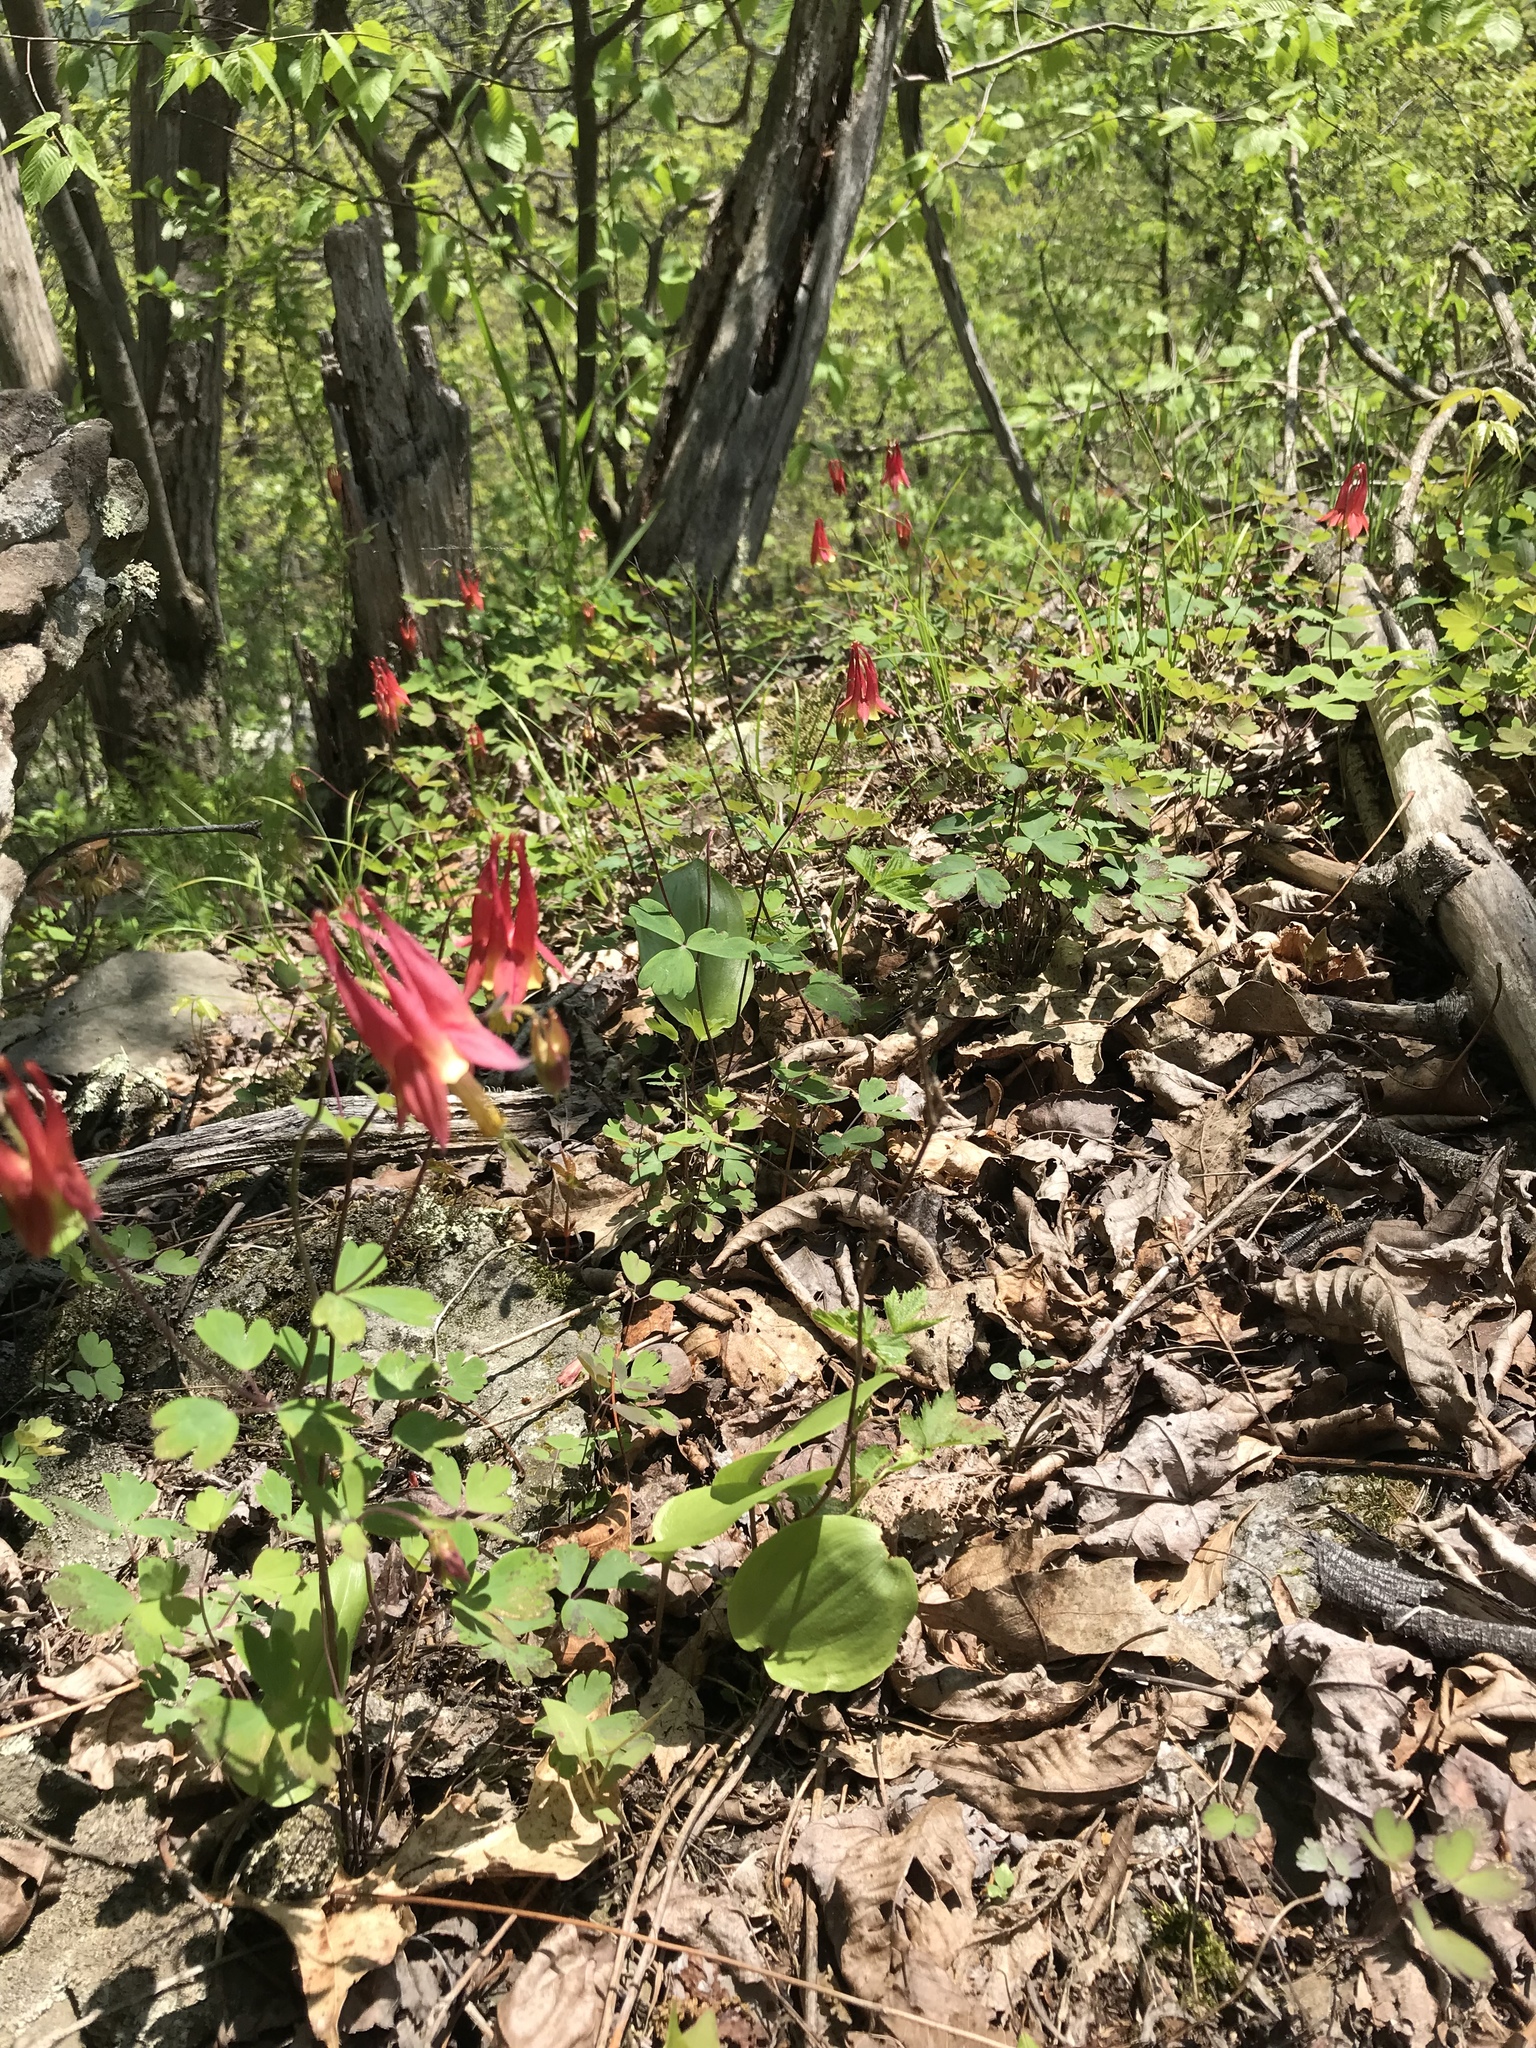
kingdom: Plantae
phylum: Tracheophyta
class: Magnoliopsida
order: Ranunculales
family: Ranunculaceae
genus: Aquilegia
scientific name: Aquilegia canadensis
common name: American columbine
